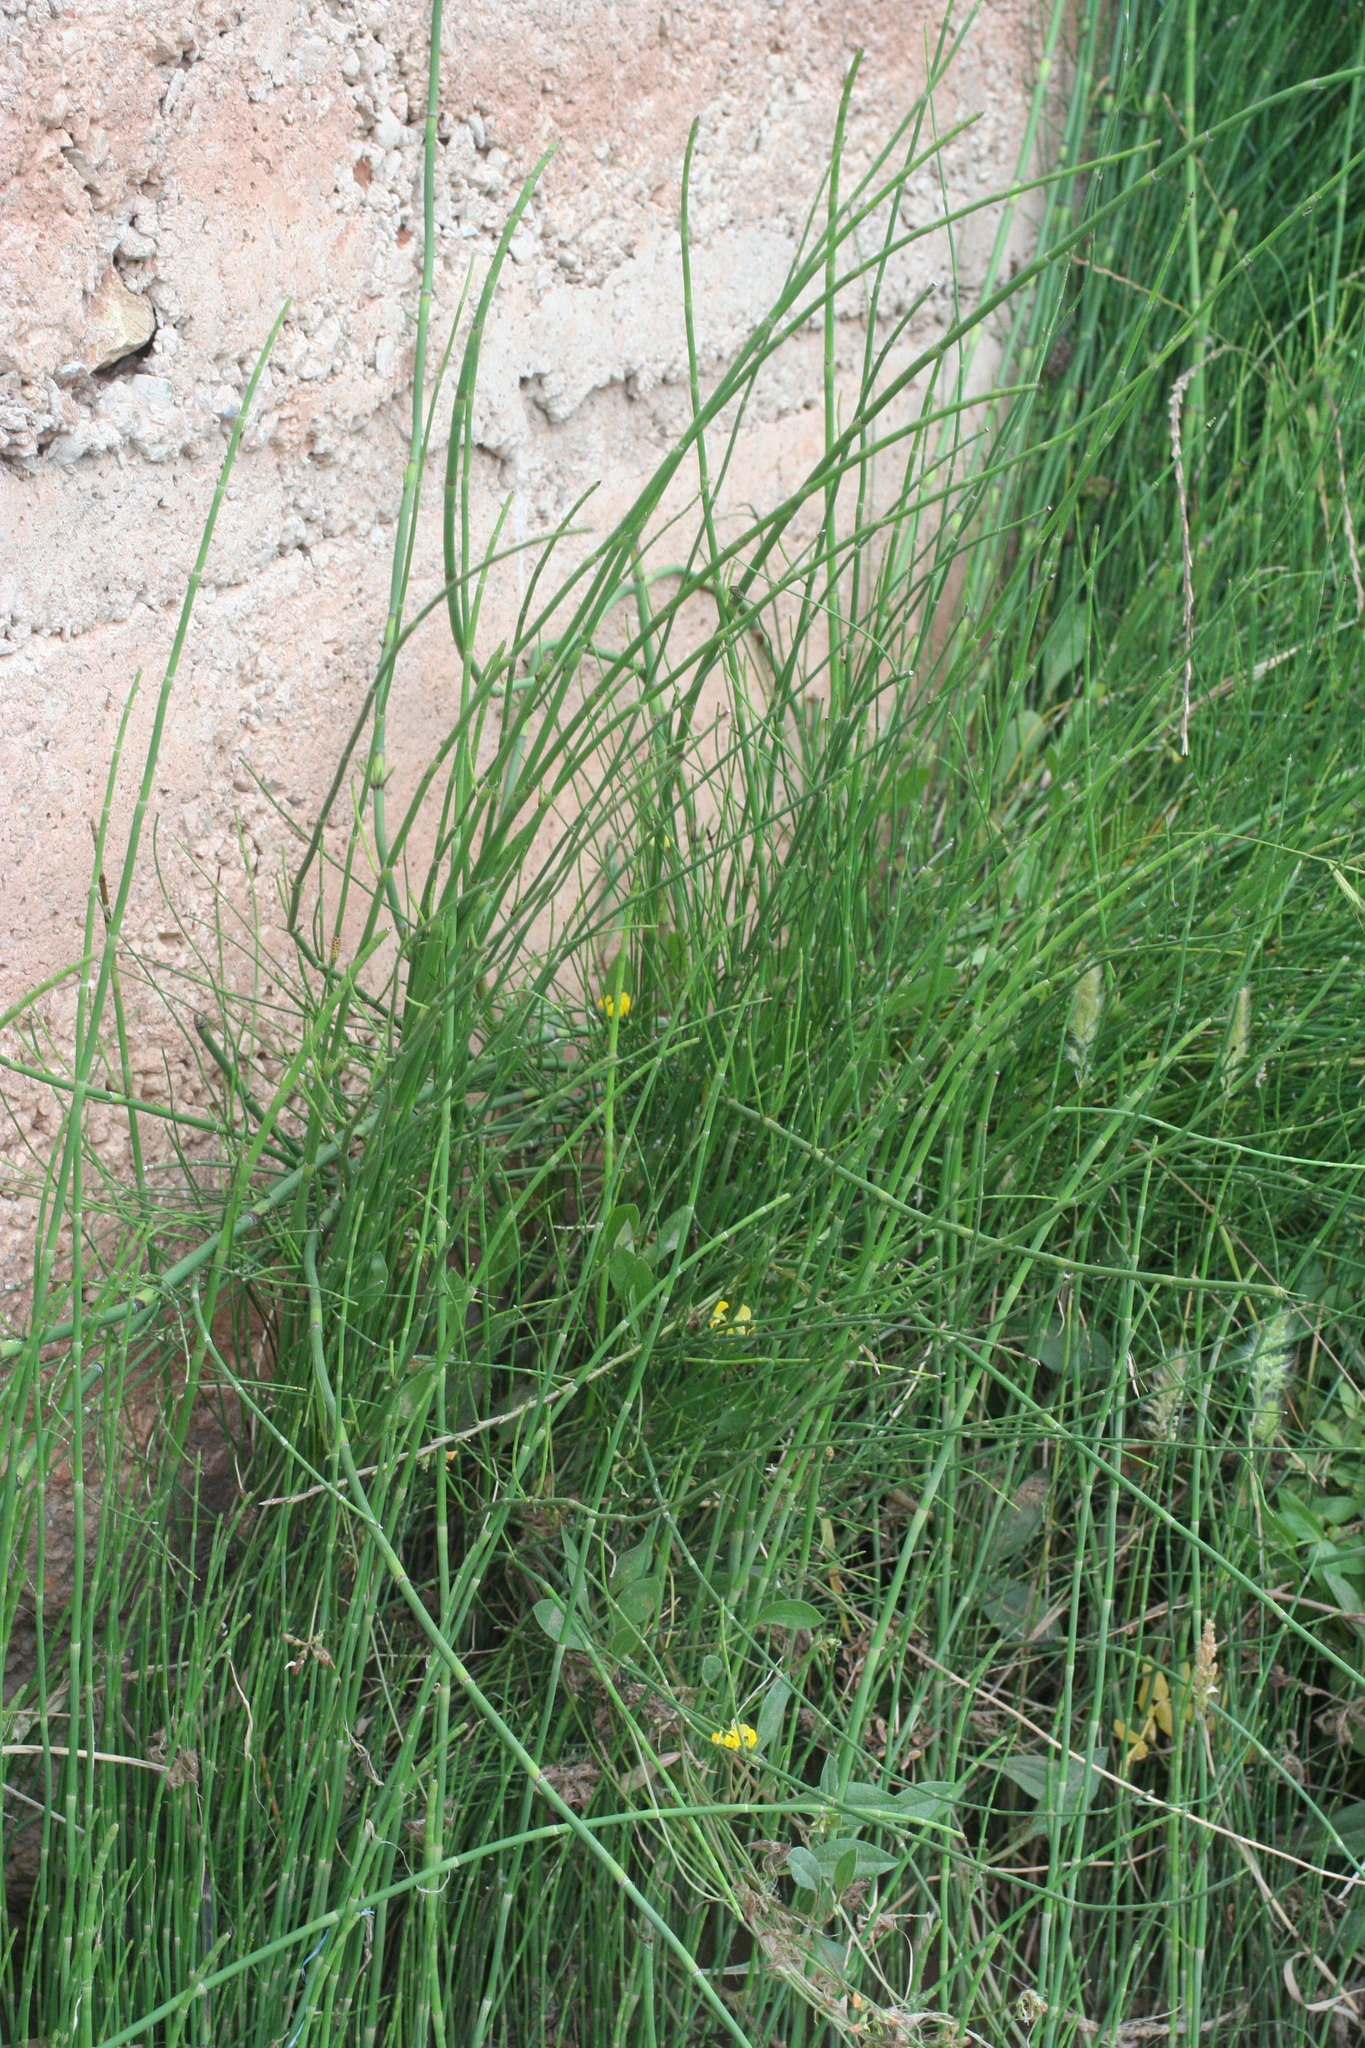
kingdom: Plantae
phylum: Tracheophyta
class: Polypodiopsida
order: Equisetales
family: Equisetaceae
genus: Equisetum
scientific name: Equisetum ramosissimum
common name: Branched horsetail
